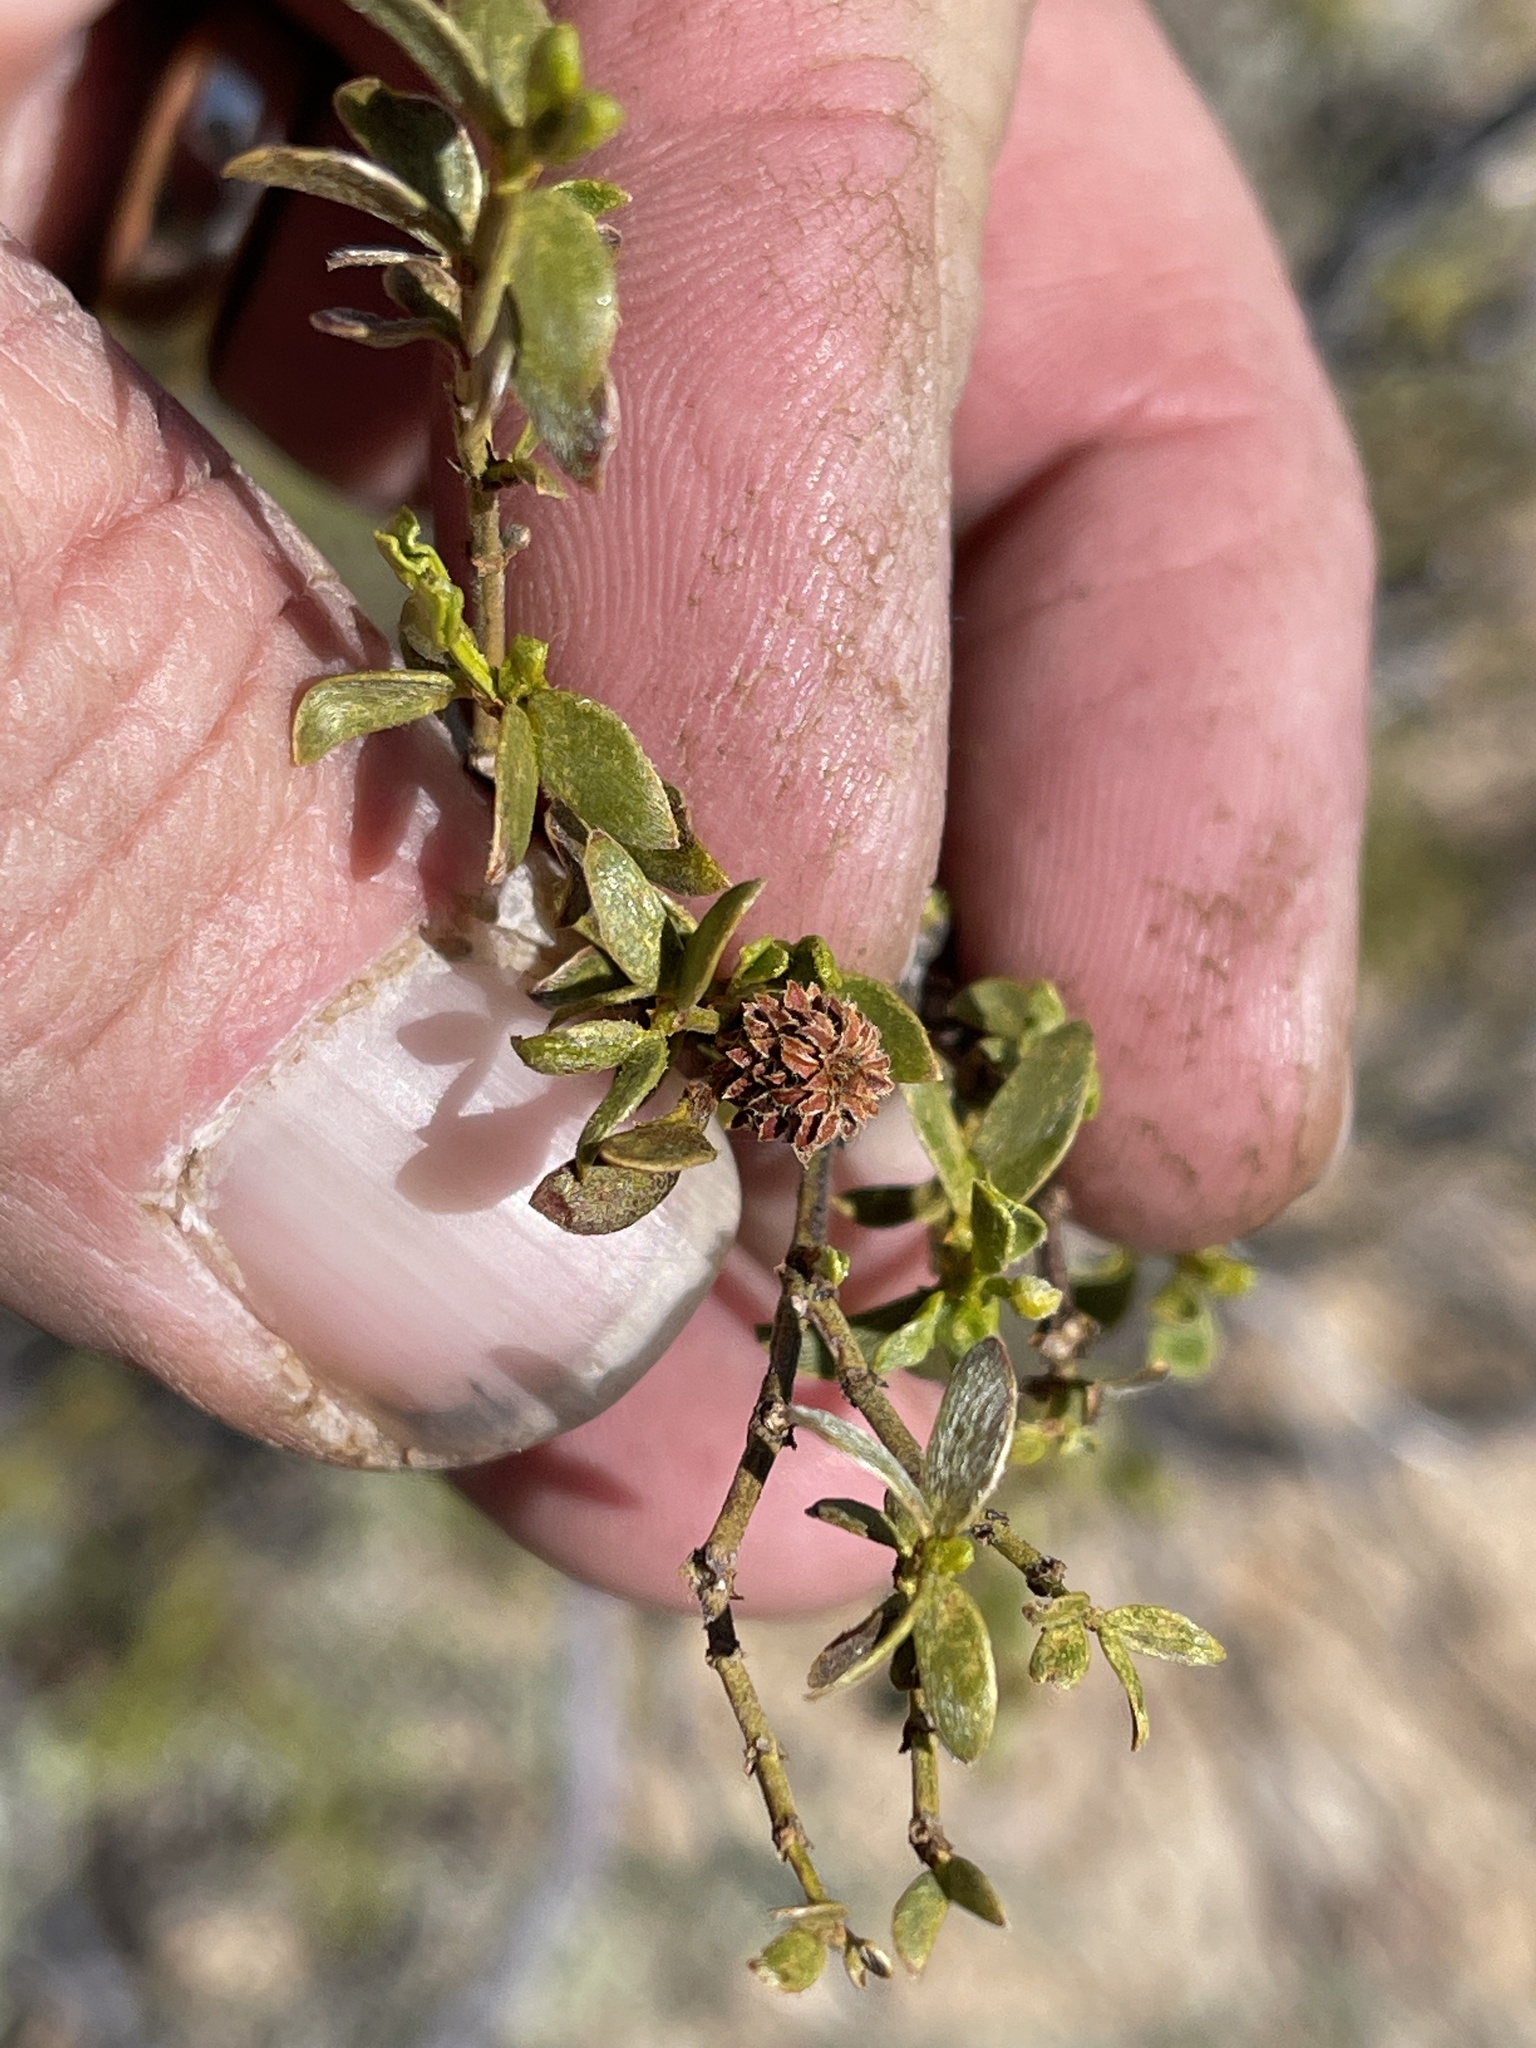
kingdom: Animalia
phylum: Arthropoda
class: Insecta
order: Diptera
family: Cecidomyiidae
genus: Asphondylia
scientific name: Asphondylia foliosa
